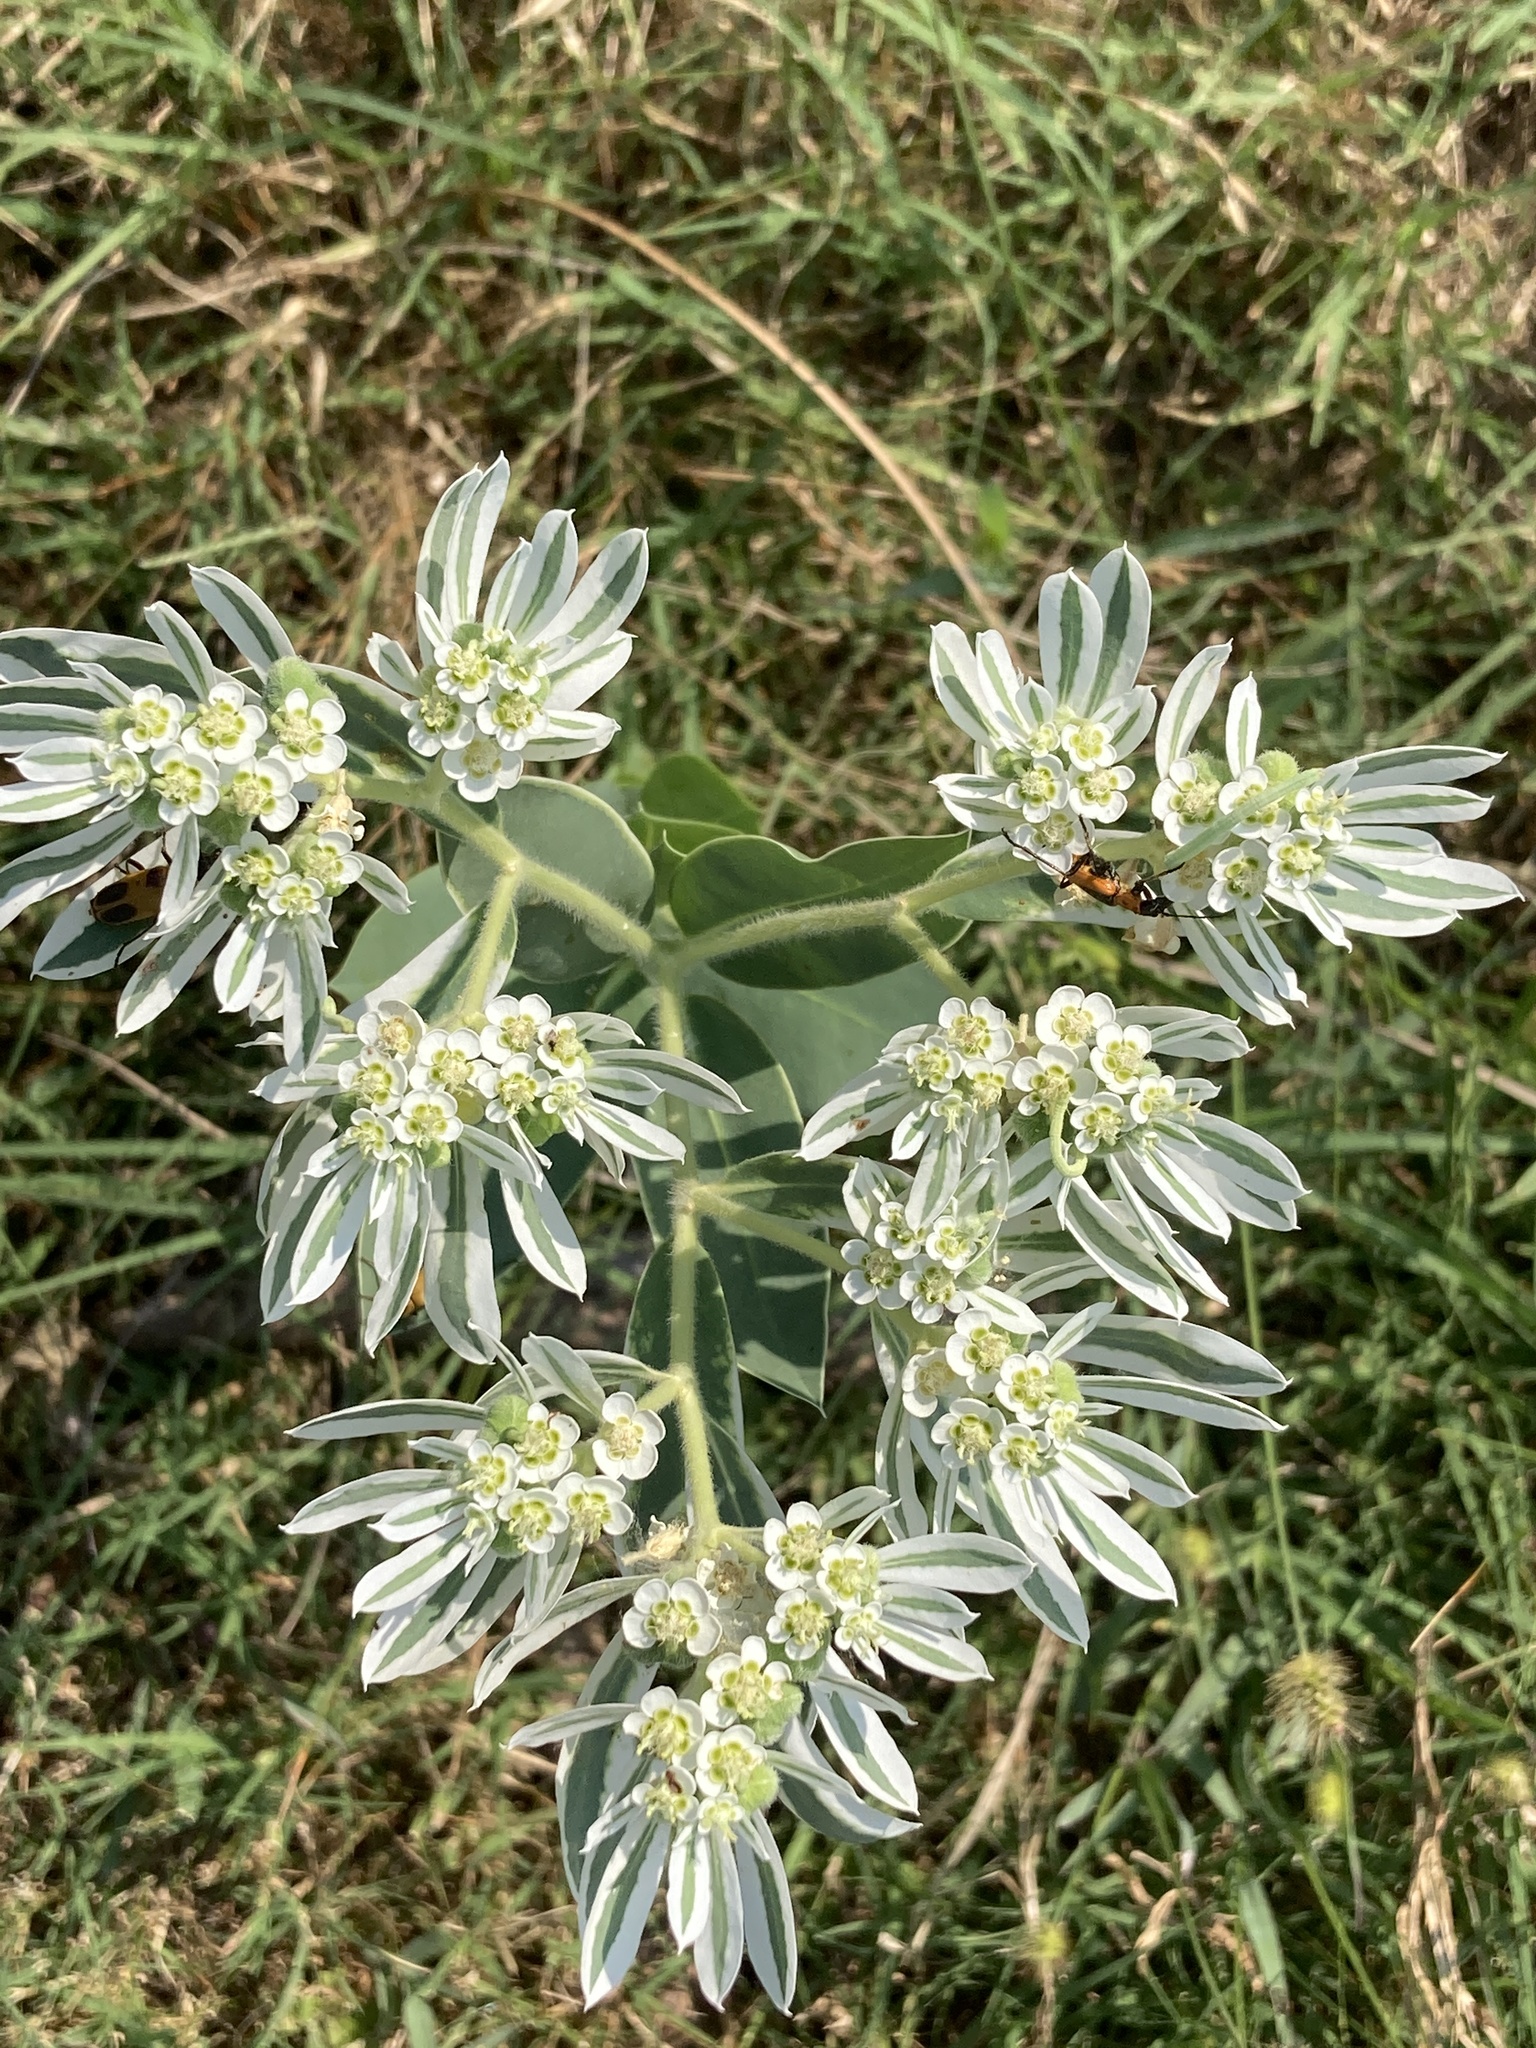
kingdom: Plantae
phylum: Tracheophyta
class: Magnoliopsida
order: Malpighiales
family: Euphorbiaceae
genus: Euphorbia
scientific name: Euphorbia marginata
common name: Ghostweed
